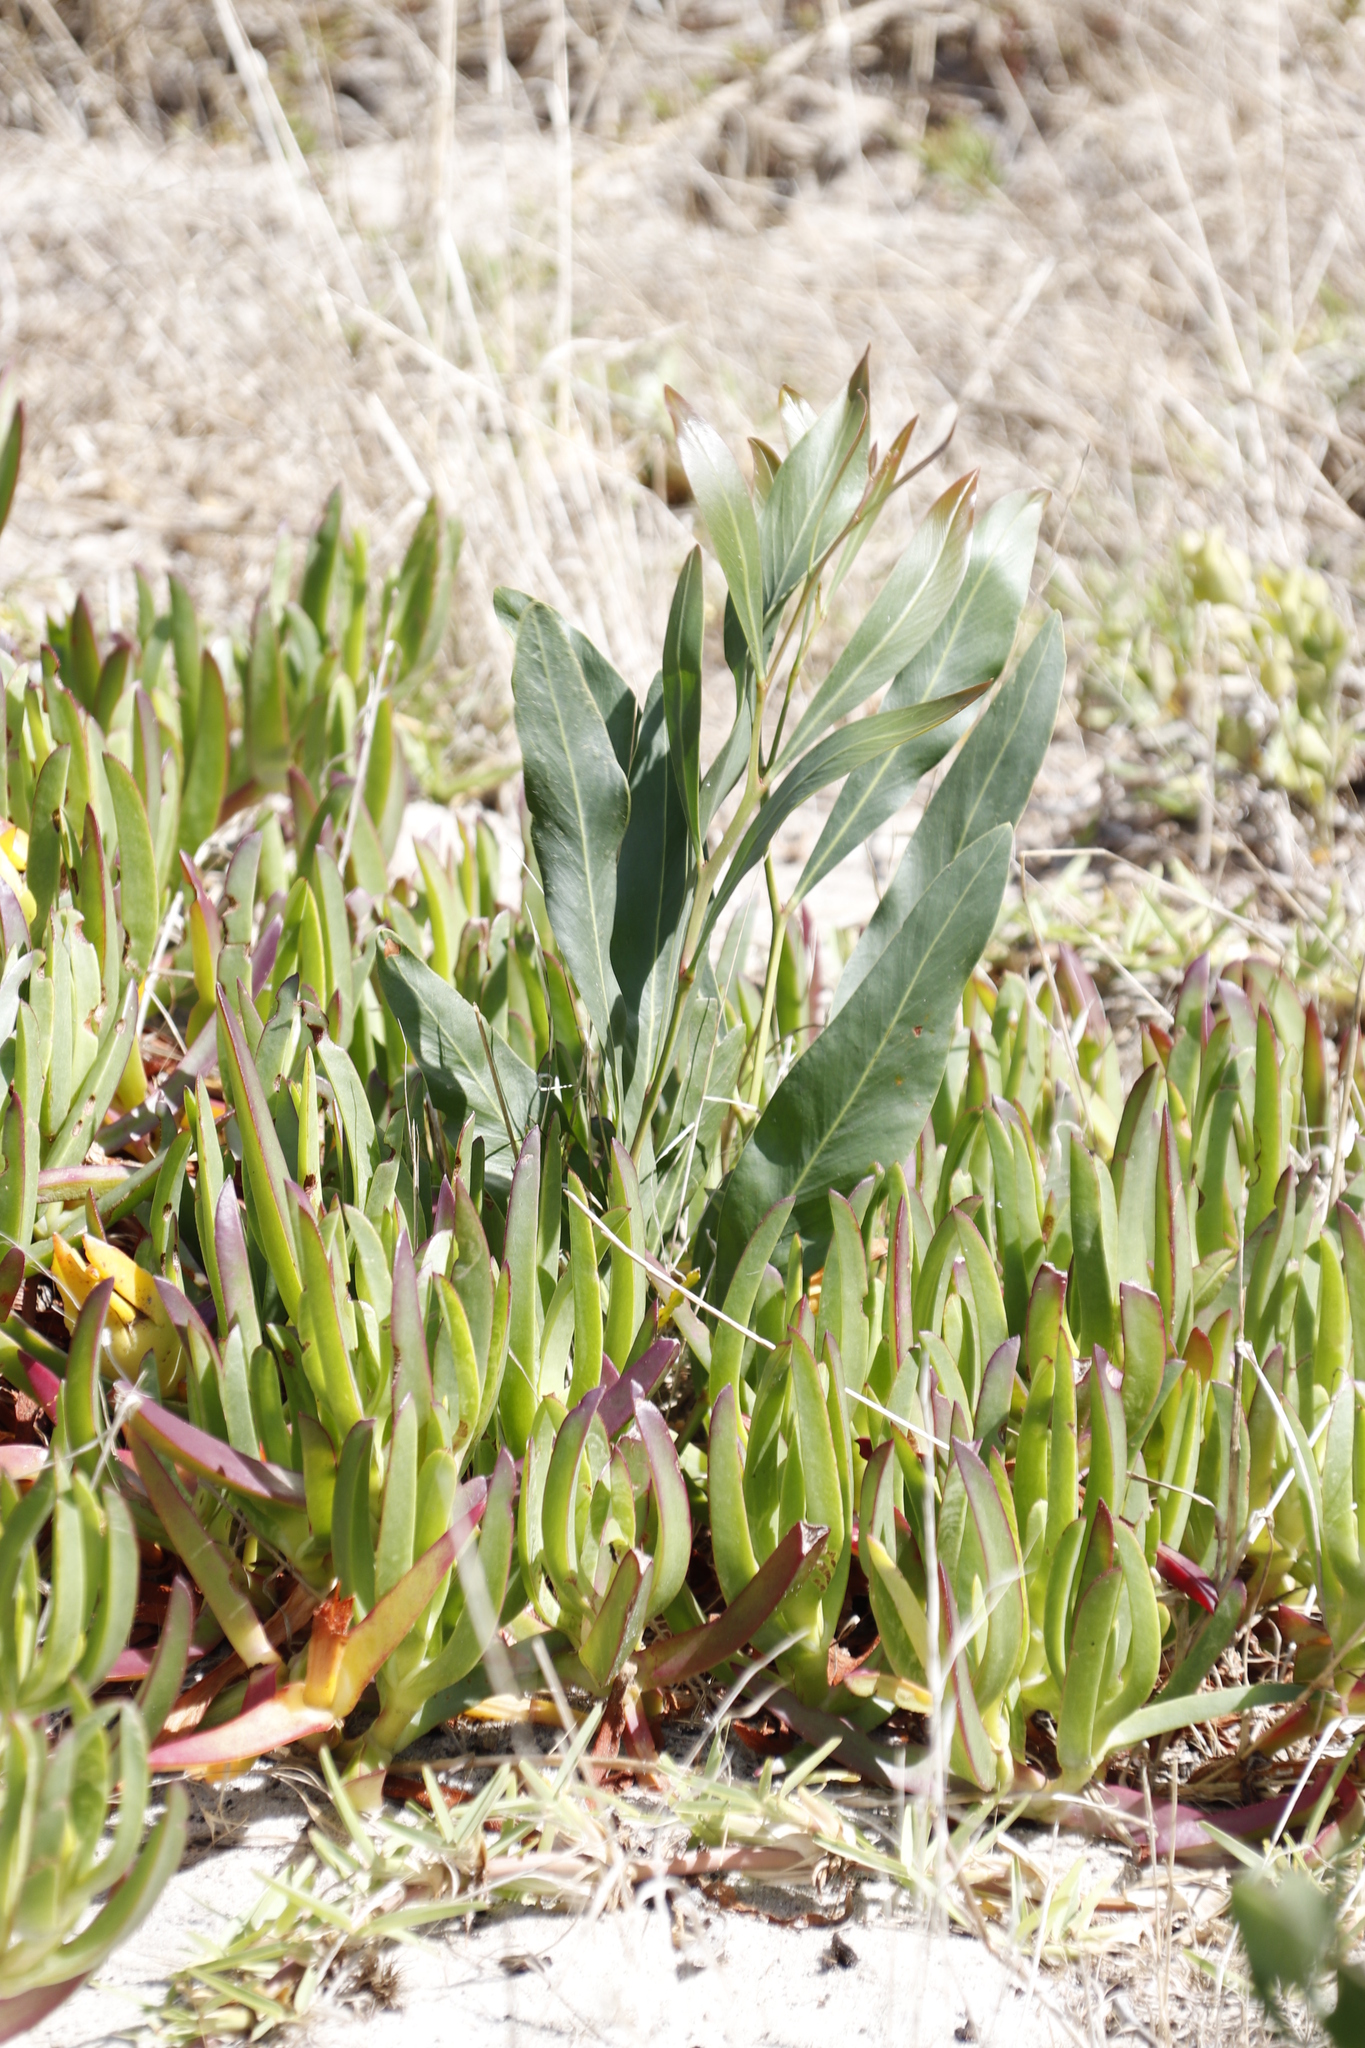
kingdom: Plantae
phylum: Tracheophyta
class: Magnoliopsida
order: Fabales
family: Fabaceae
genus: Acacia
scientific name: Acacia saligna
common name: Orange wattle
